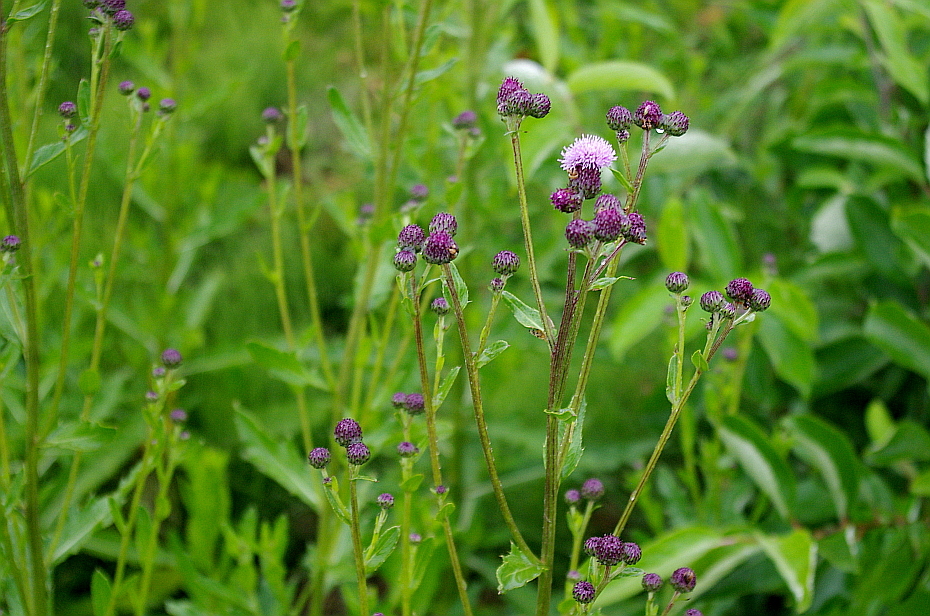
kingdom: Plantae
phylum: Tracheophyta
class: Magnoliopsida
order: Asterales
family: Asteraceae
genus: Cirsium
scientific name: Cirsium arvense
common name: Creeping thistle
